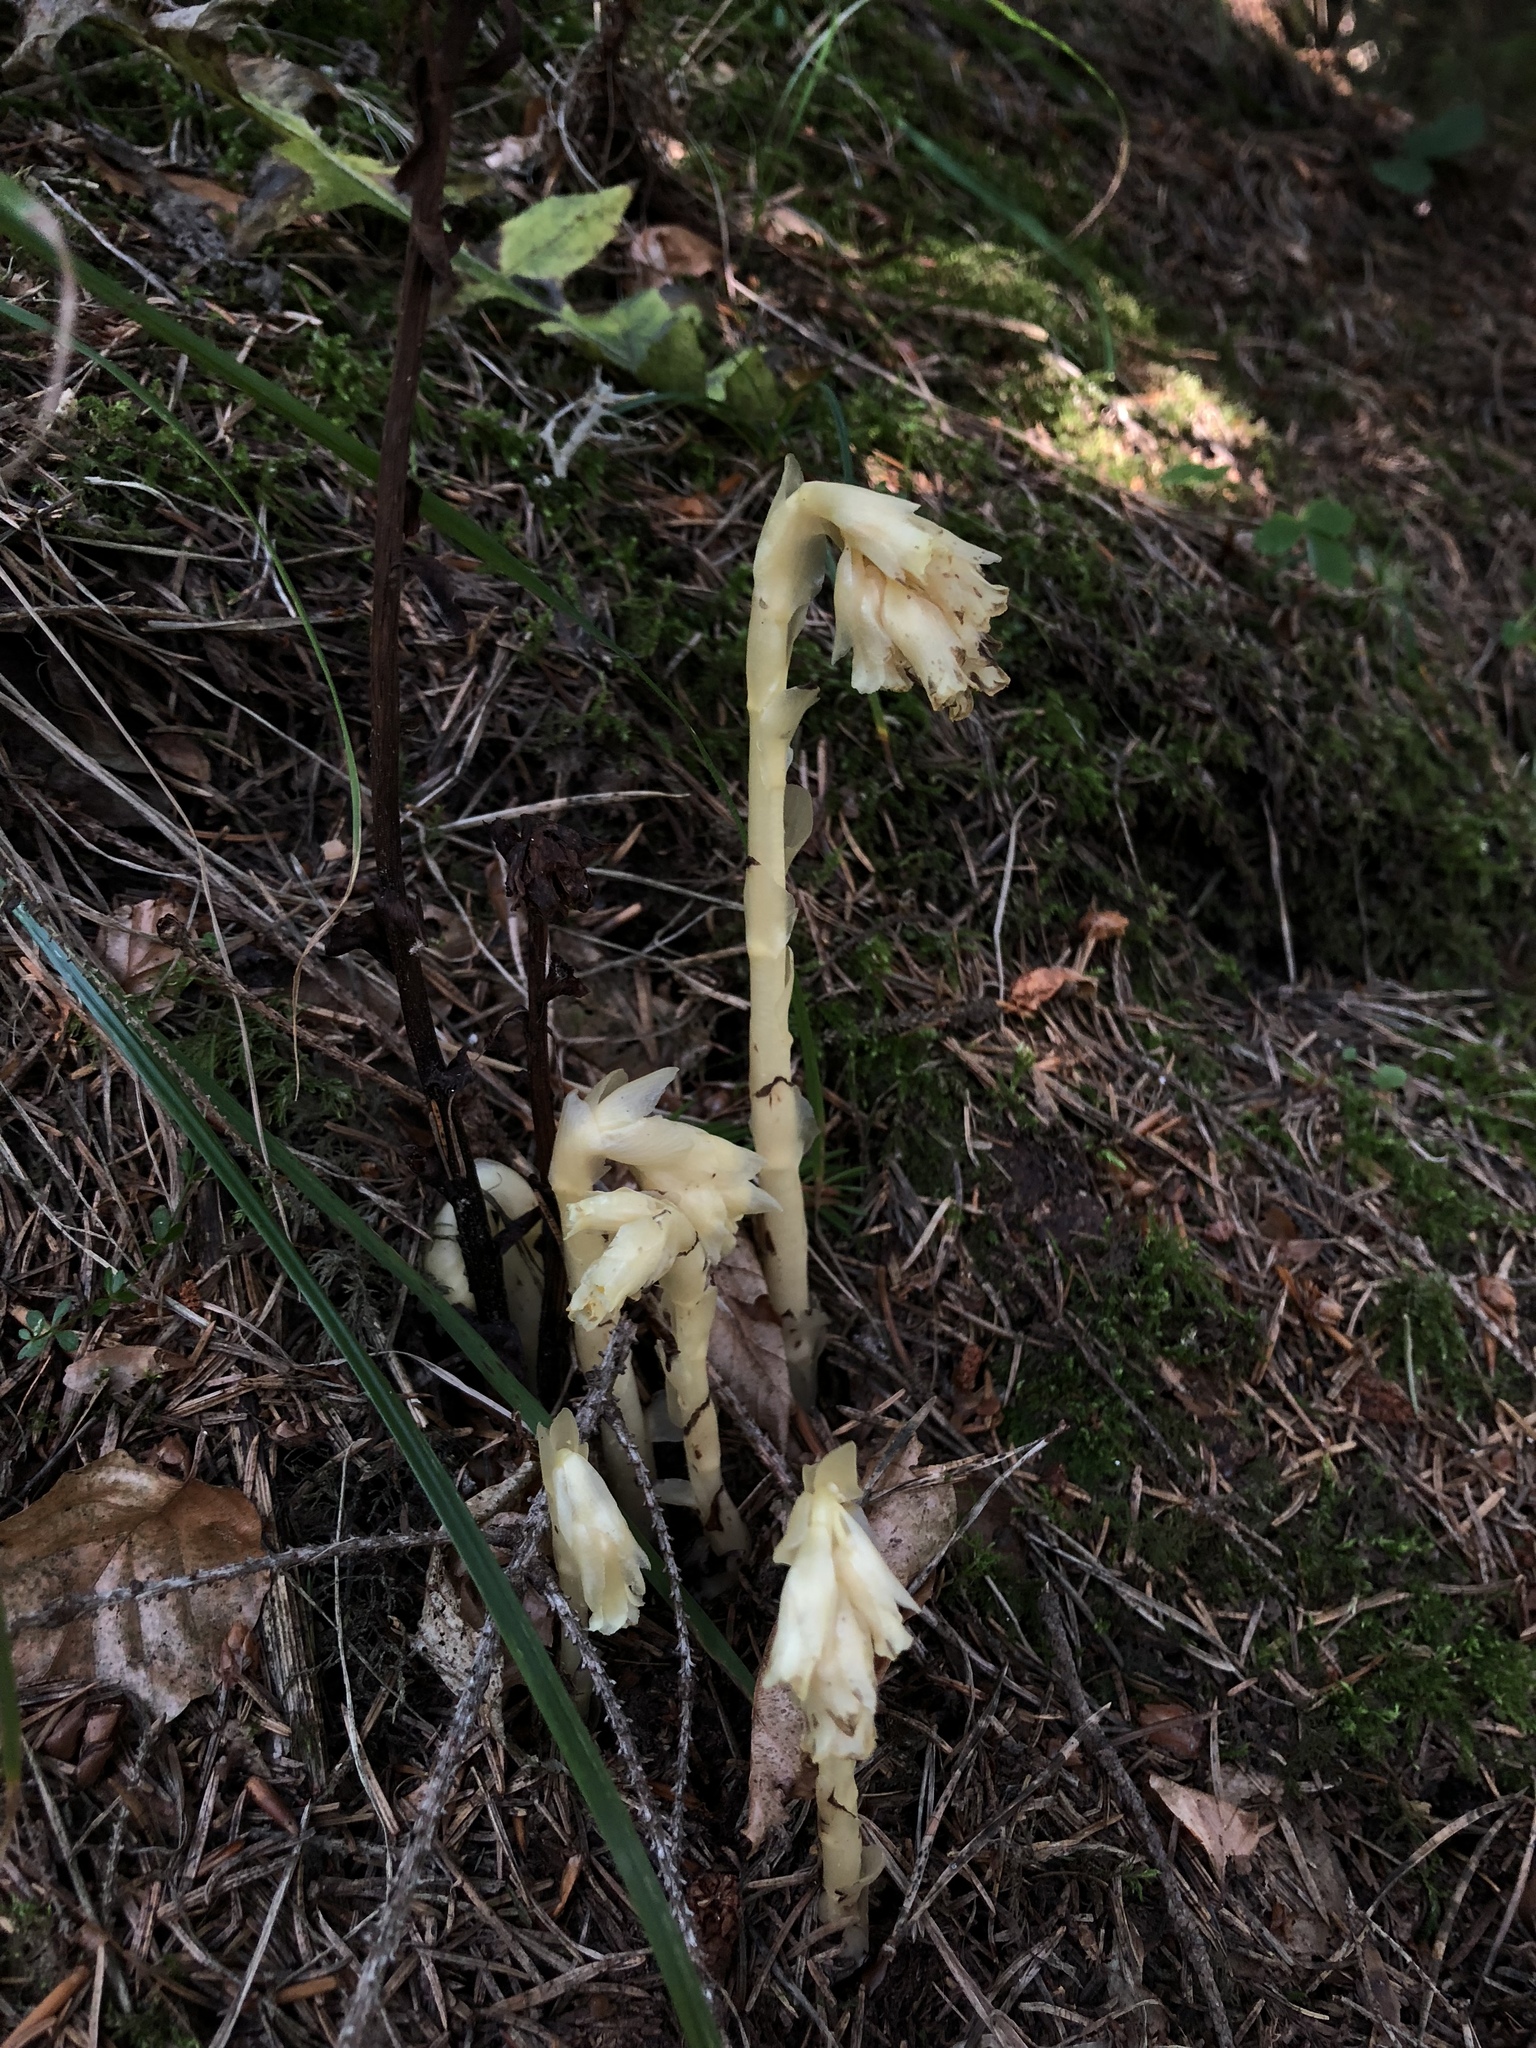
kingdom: Plantae
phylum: Tracheophyta
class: Magnoliopsida
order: Ericales
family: Ericaceae
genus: Hypopitys
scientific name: Hypopitys monotropa
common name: Yellow bird's-nest
